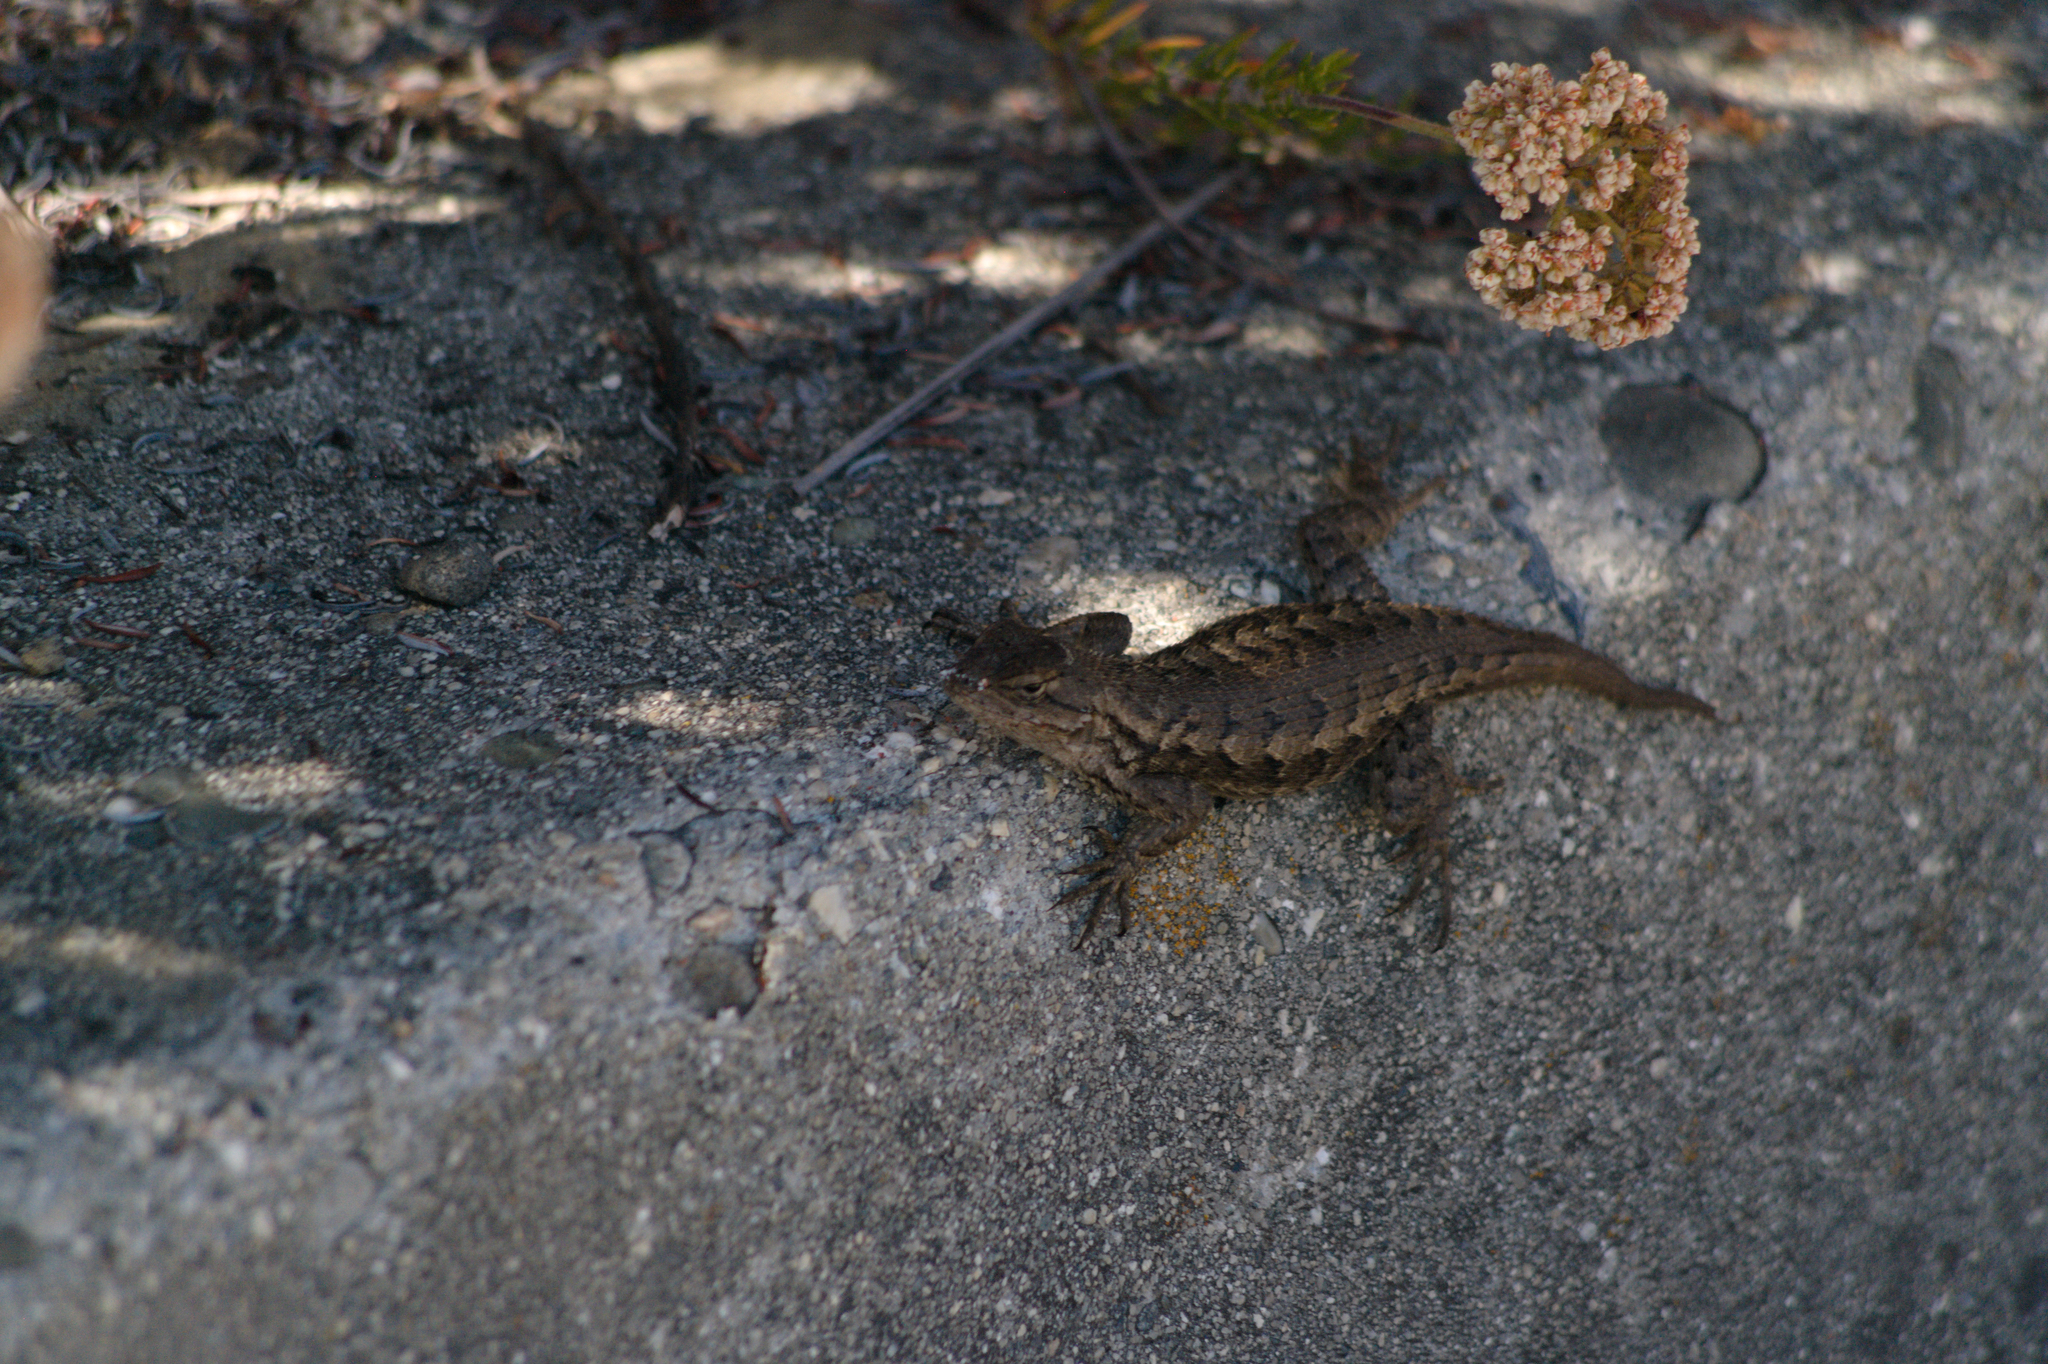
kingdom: Animalia
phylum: Chordata
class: Squamata
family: Phrynosomatidae
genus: Sceloporus
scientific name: Sceloporus occidentalis
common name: Western fence lizard
